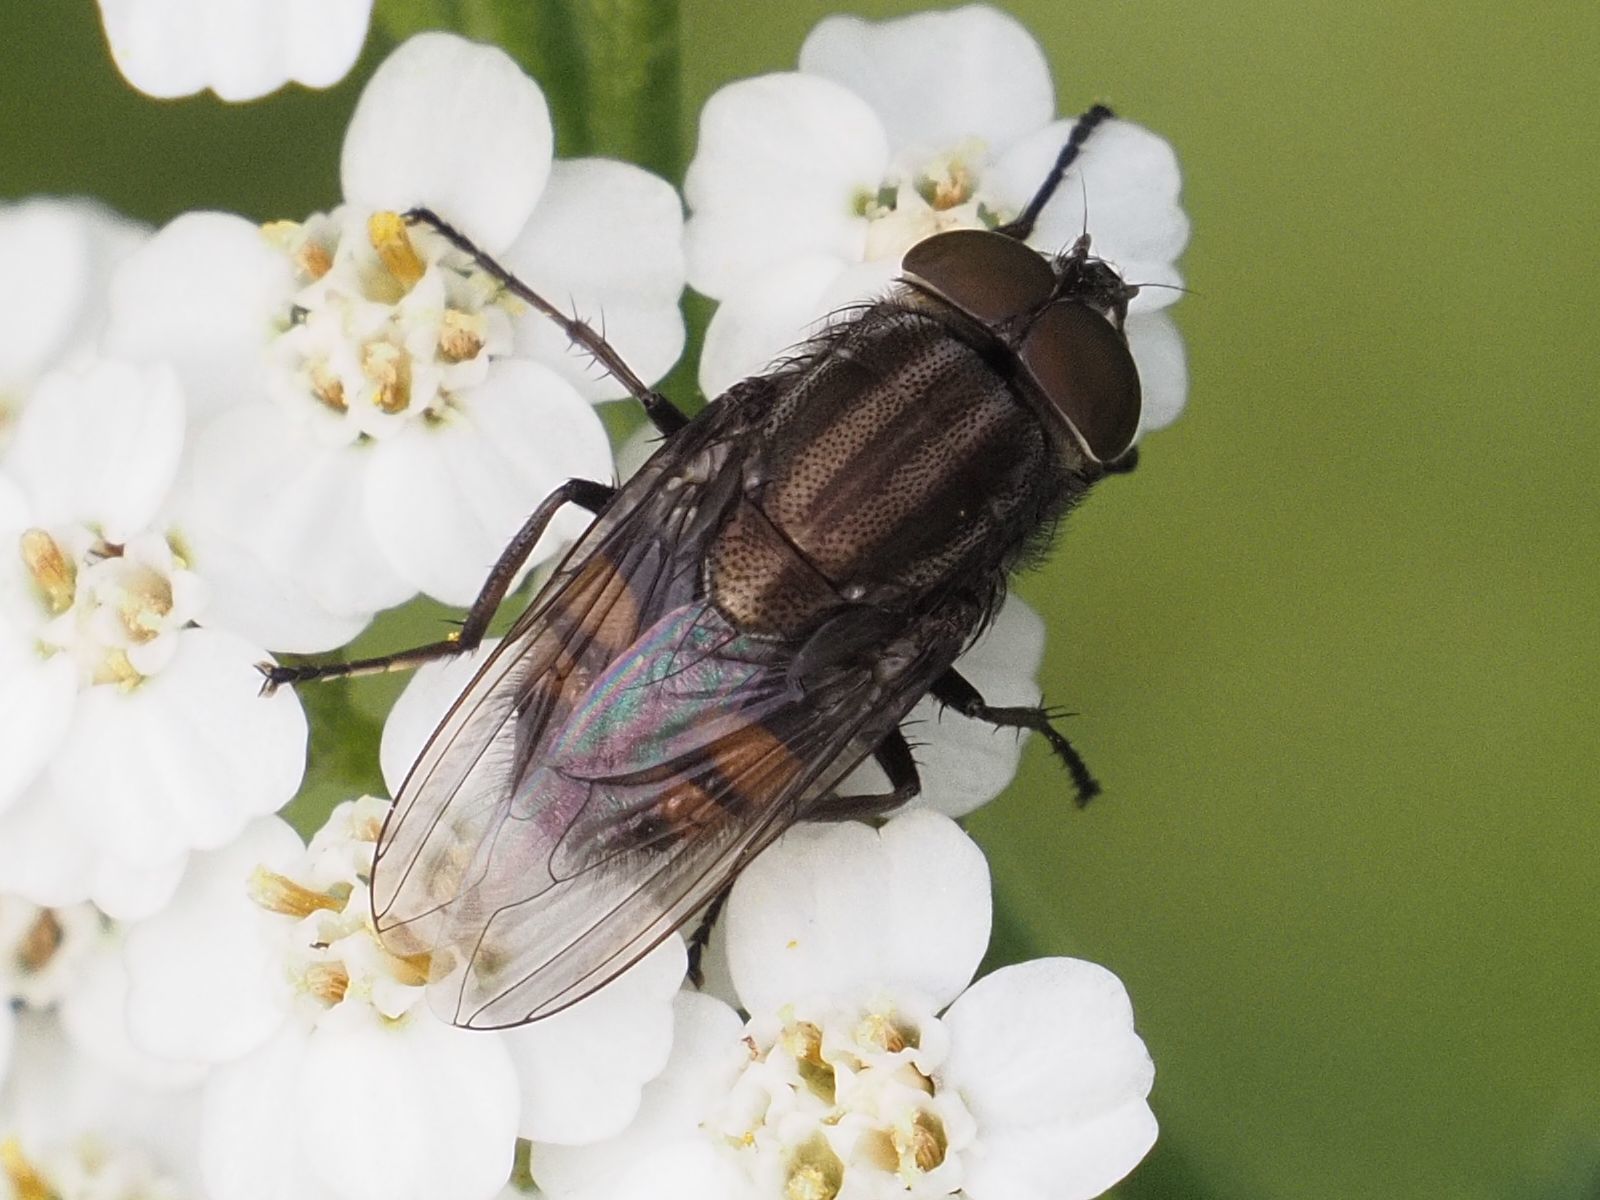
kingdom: Animalia
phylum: Arthropoda
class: Insecta
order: Diptera
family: Calliphoridae
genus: Stomorhina
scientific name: Stomorhina lunata
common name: Locust blowfly
